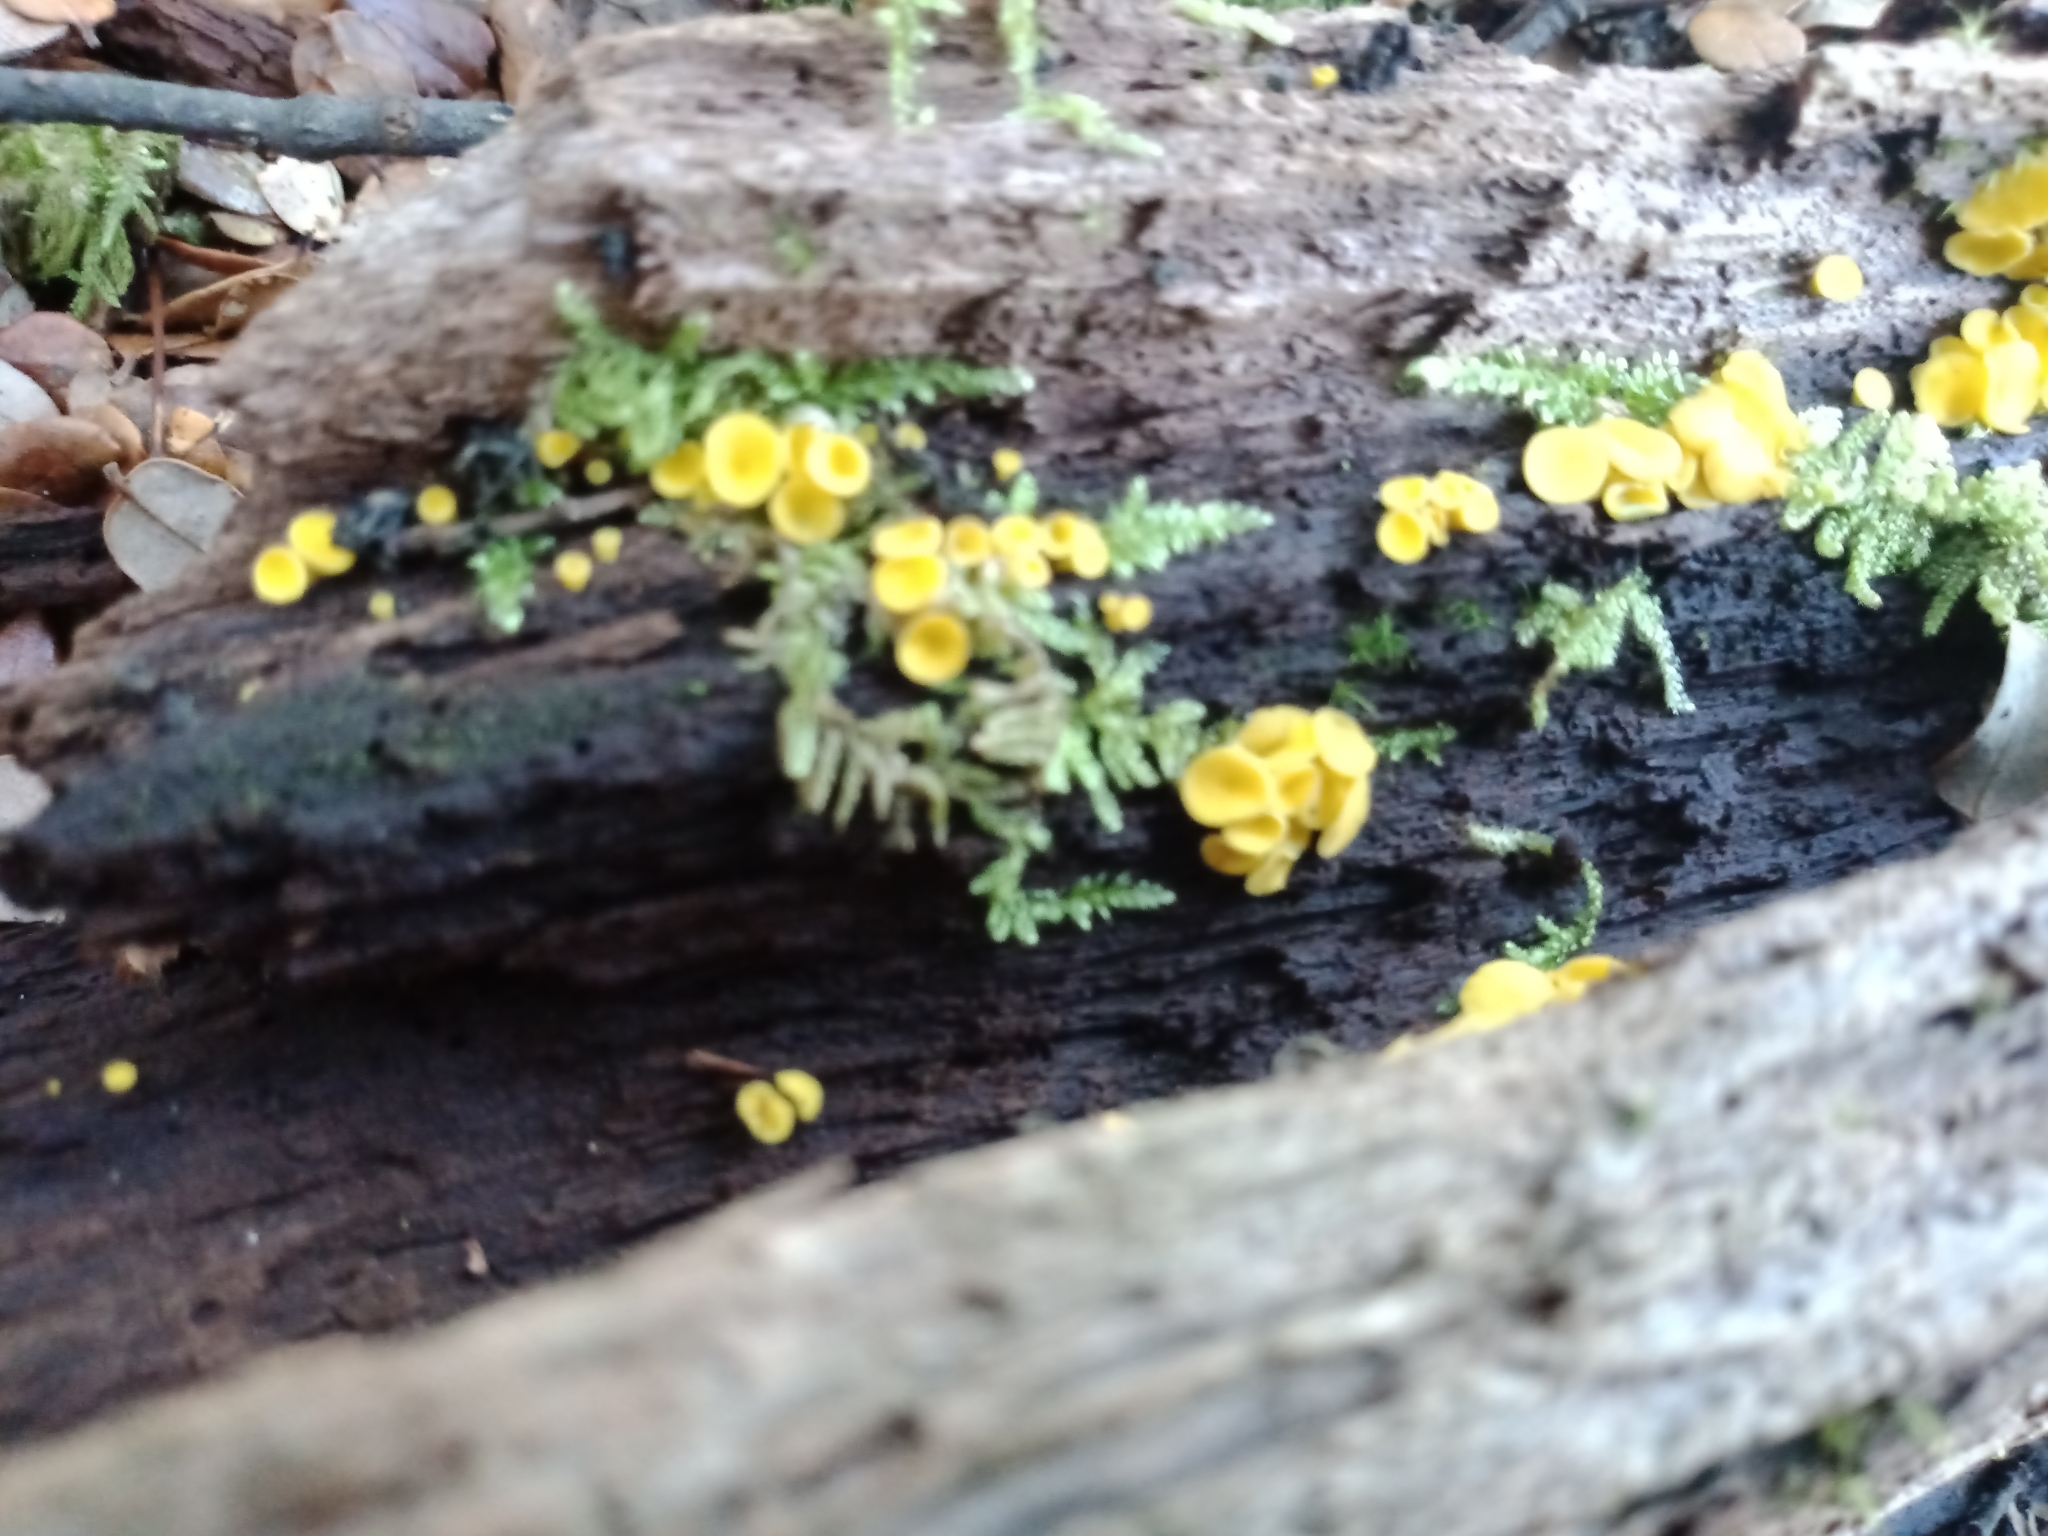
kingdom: Fungi
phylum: Ascomycota
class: Leotiomycetes
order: Helotiales
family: Pezizellaceae
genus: Calycina
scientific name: Calycina citrina
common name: Yellow fairy cups
